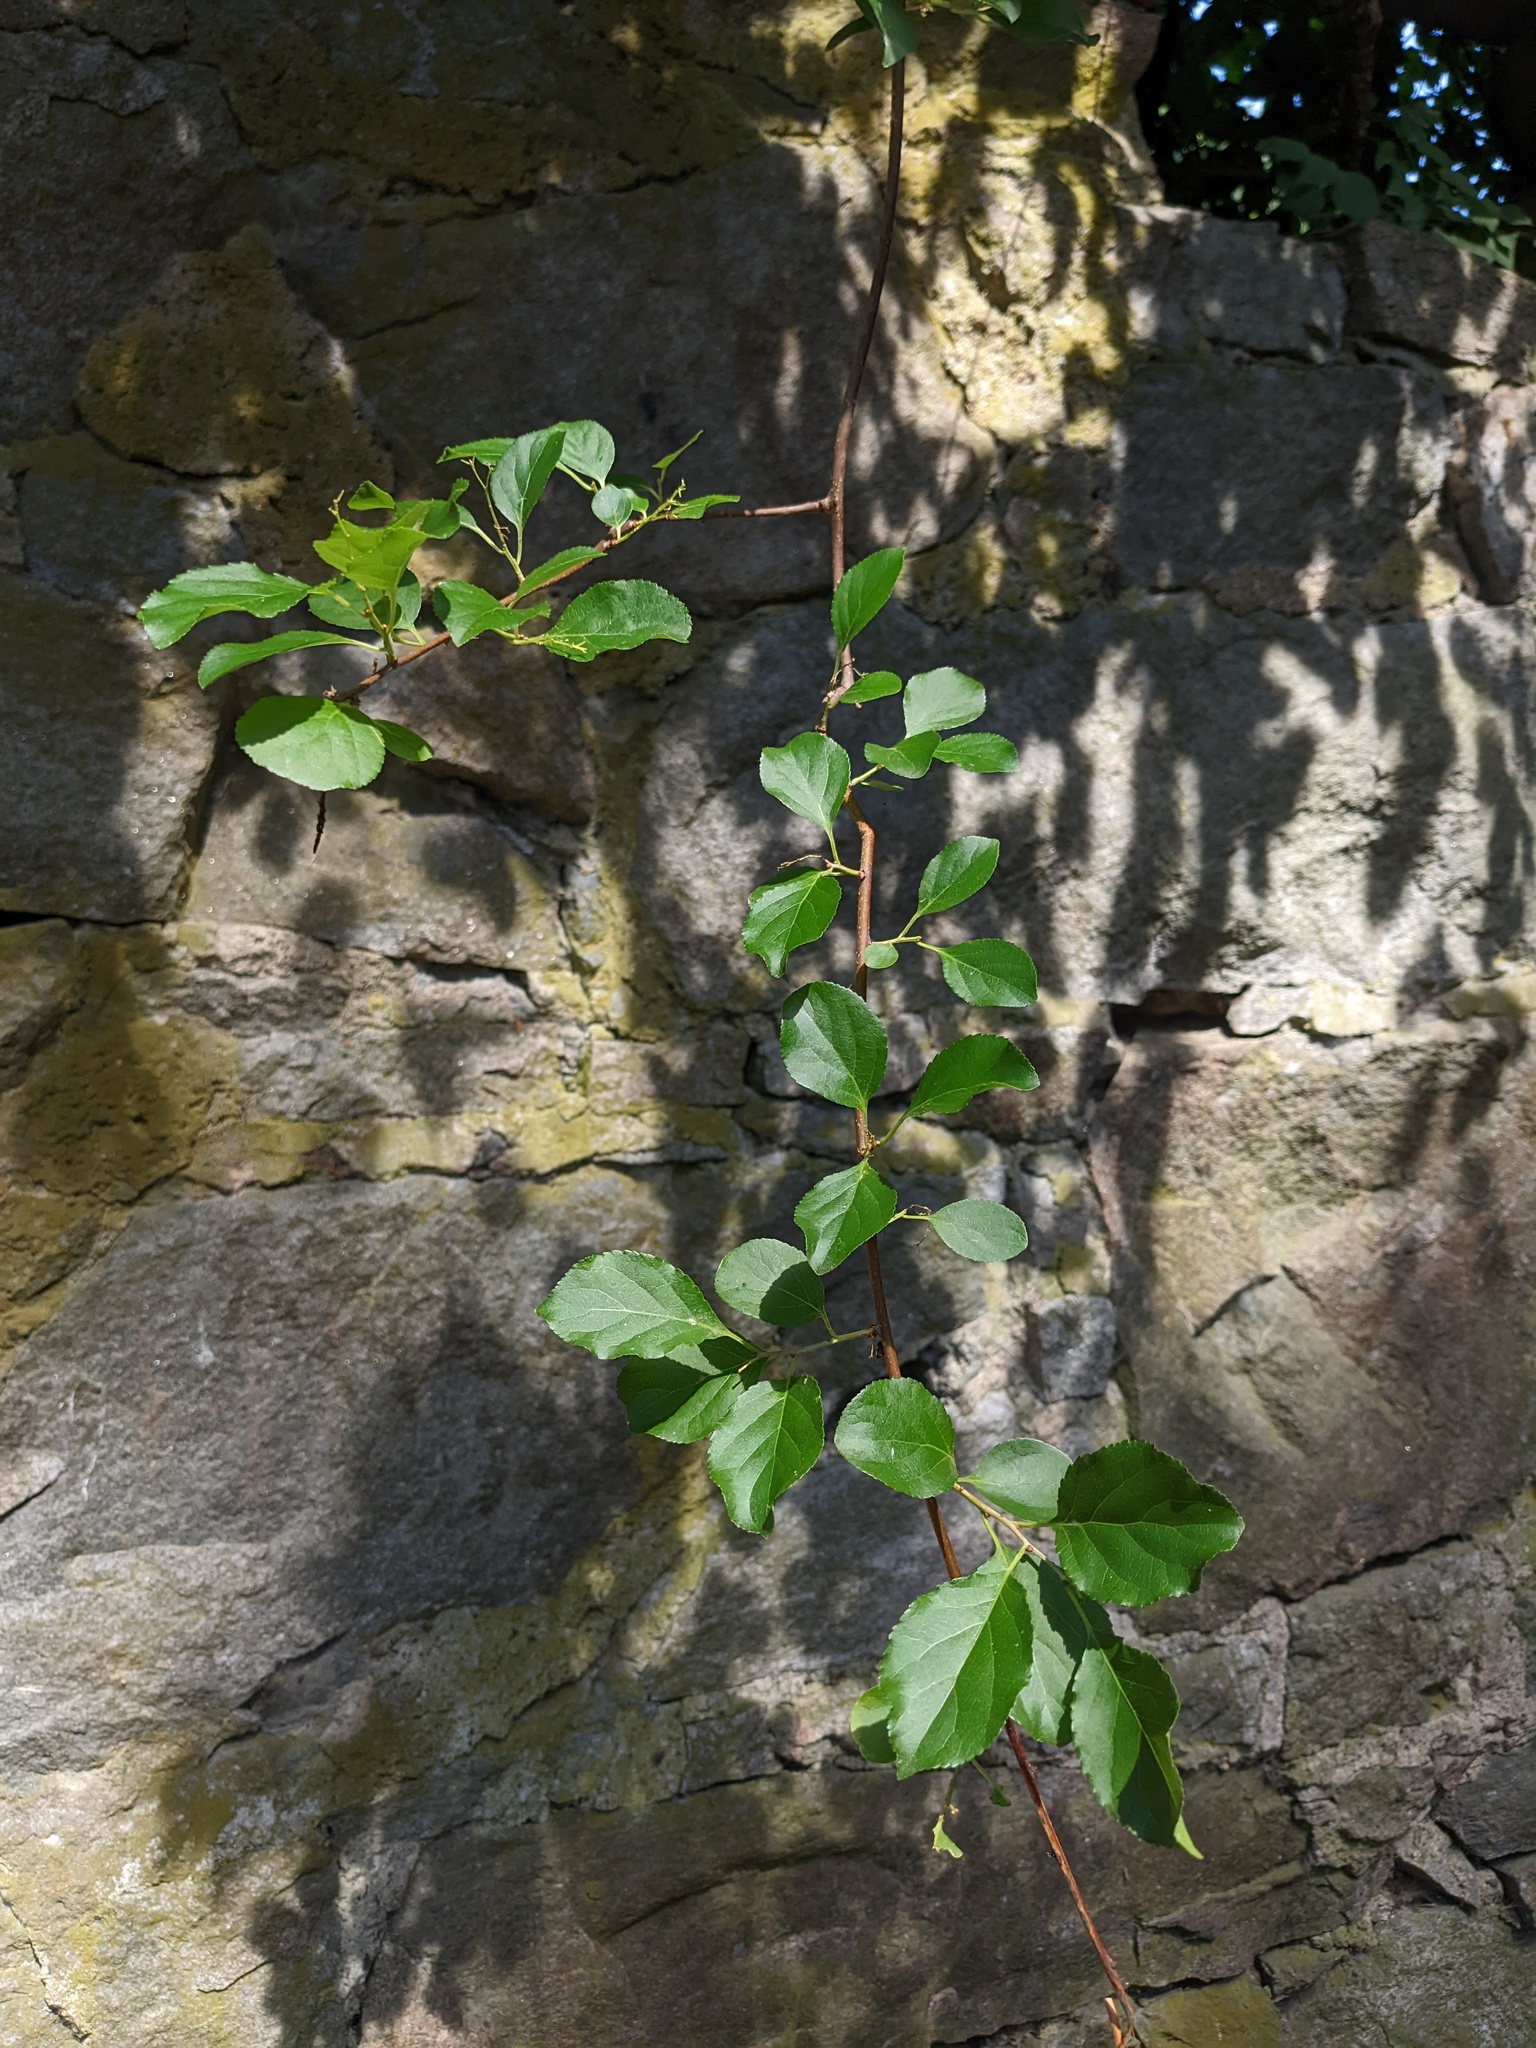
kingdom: Plantae
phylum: Tracheophyta
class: Magnoliopsida
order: Celastrales
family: Celastraceae
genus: Celastrus
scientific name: Celastrus orbiculatus
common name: Oriental bittersweet
